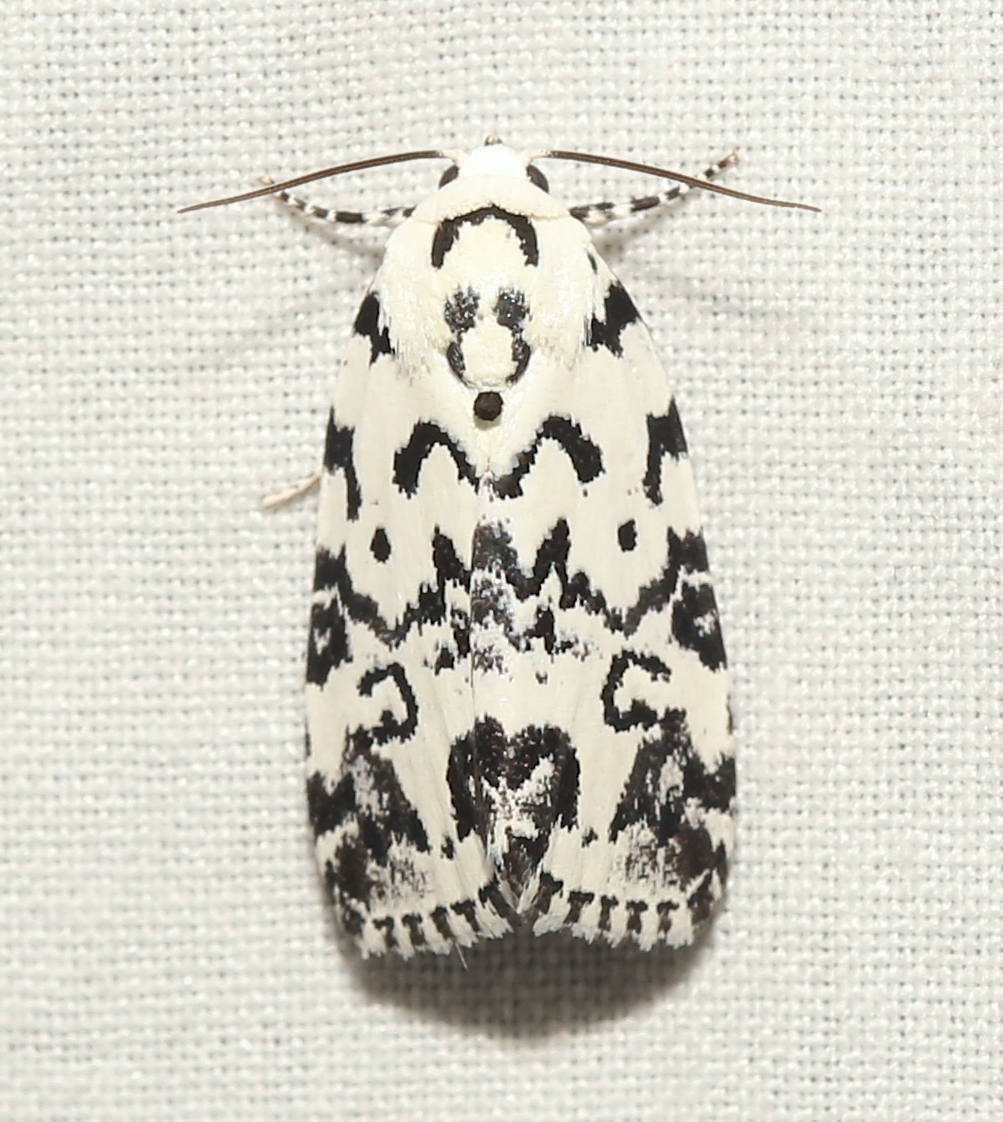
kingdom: Animalia
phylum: Arthropoda
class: Insecta
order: Lepidoptera
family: Noctuidae
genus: Polygrammate
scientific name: Polygrammate hebraeicum
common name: Hebrew moth
